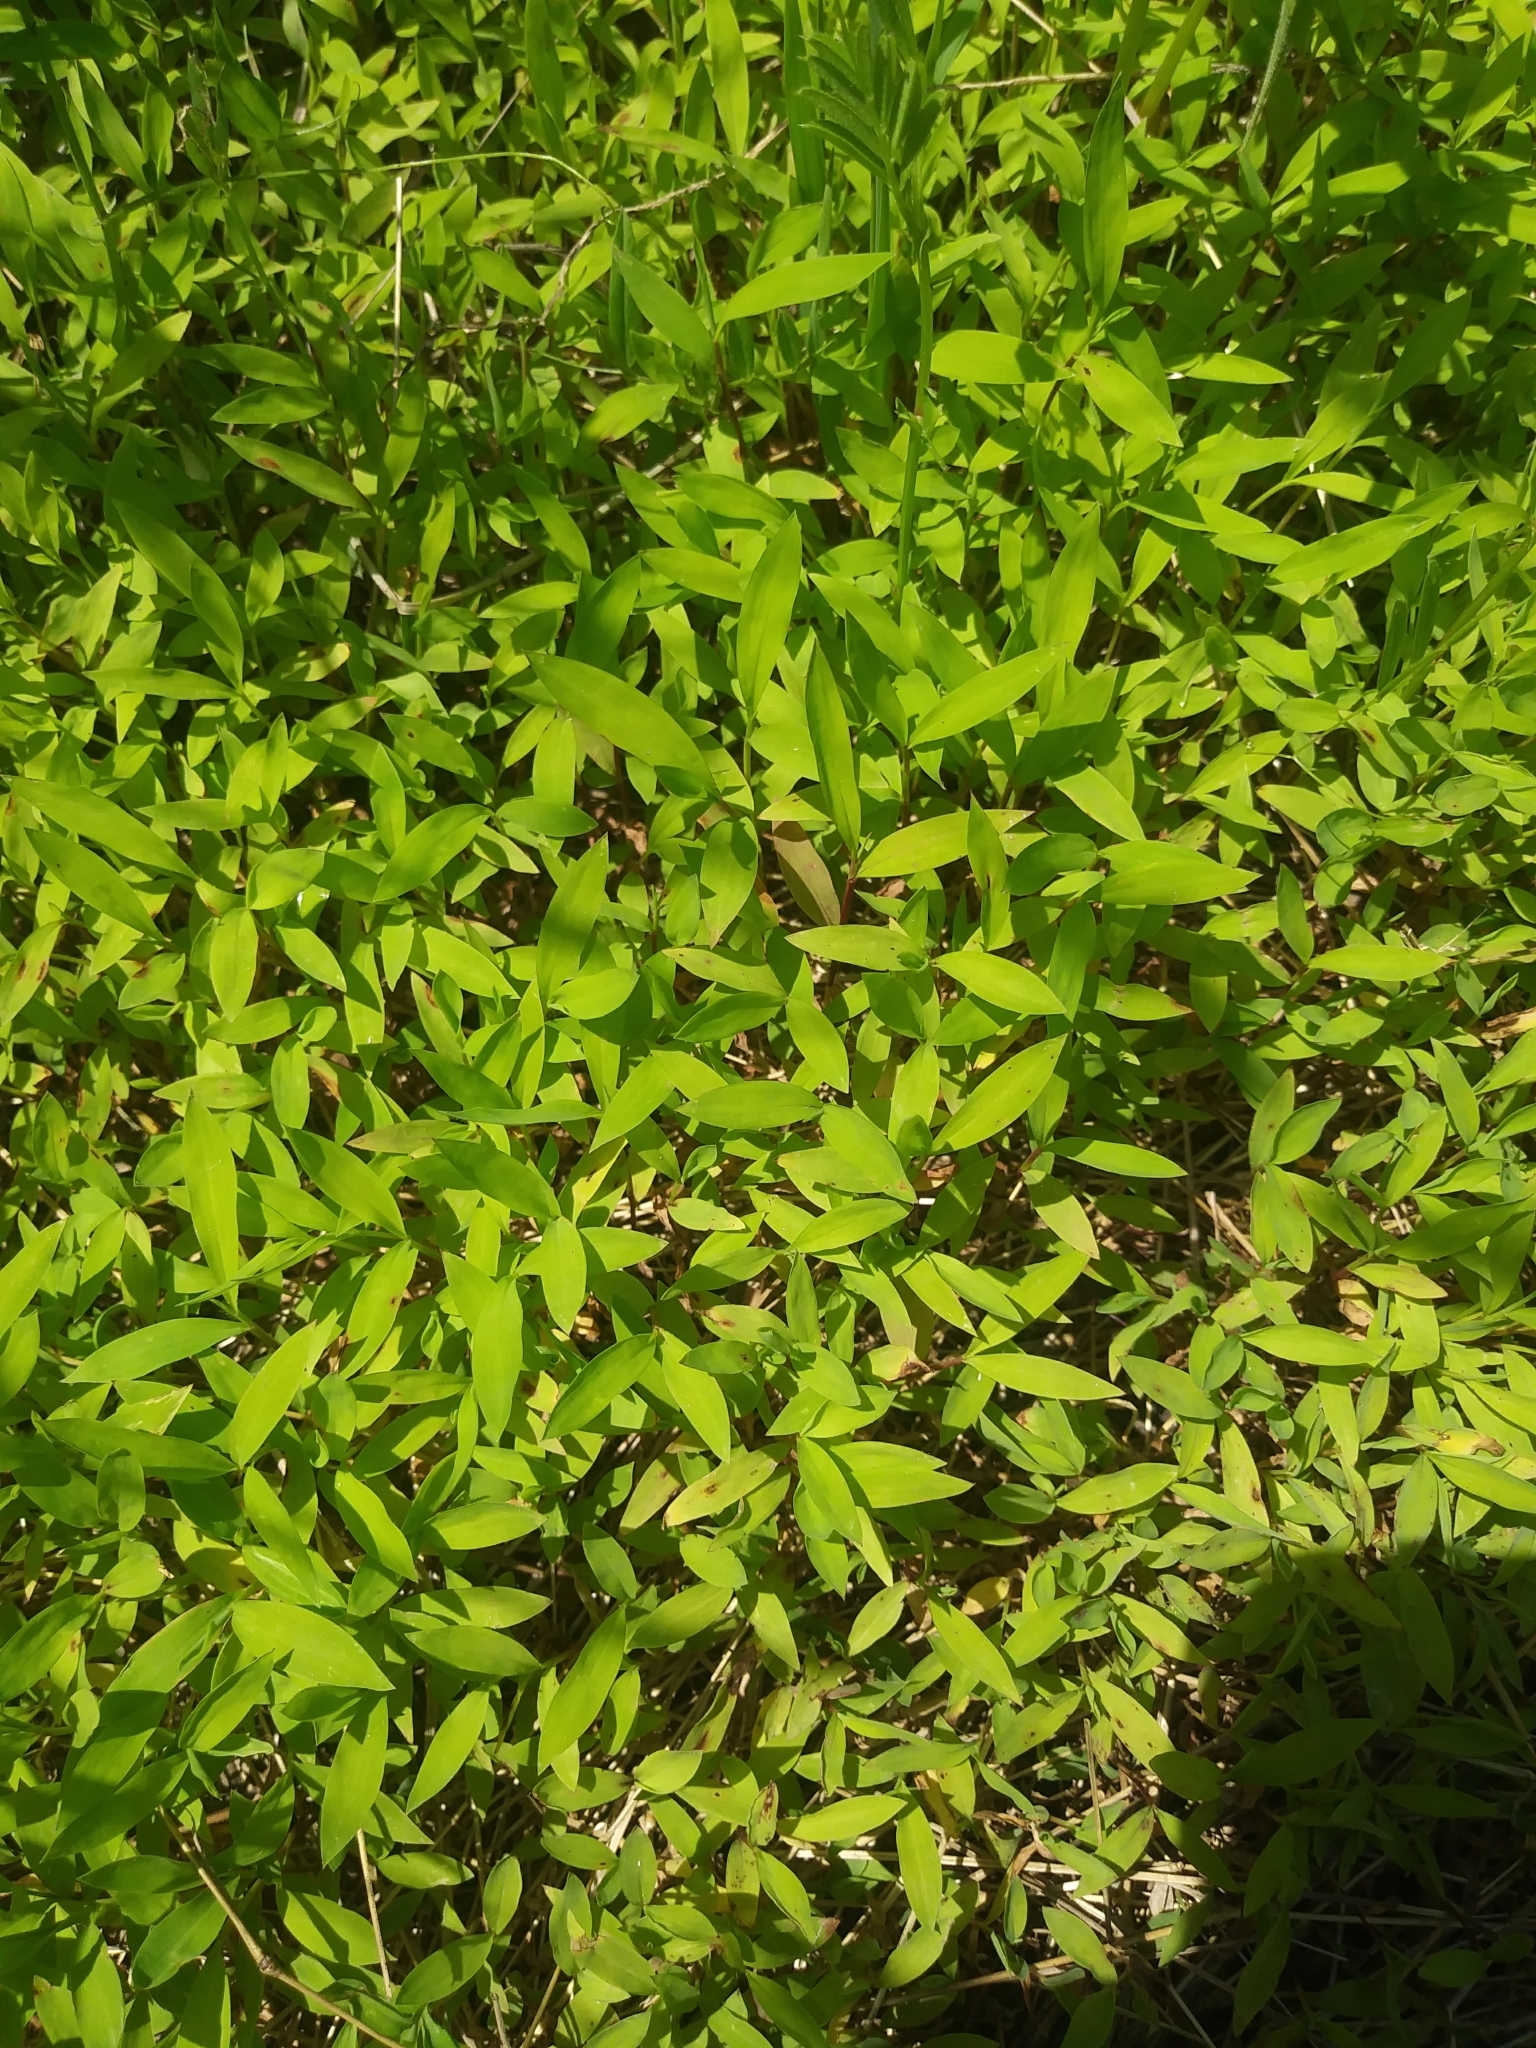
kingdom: Plantae
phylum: Tracheophyta
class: Liliopsida
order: Poales
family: Poaceae
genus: Microstegium
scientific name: Microstegium vimineum
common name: Japanese stiltgrass
